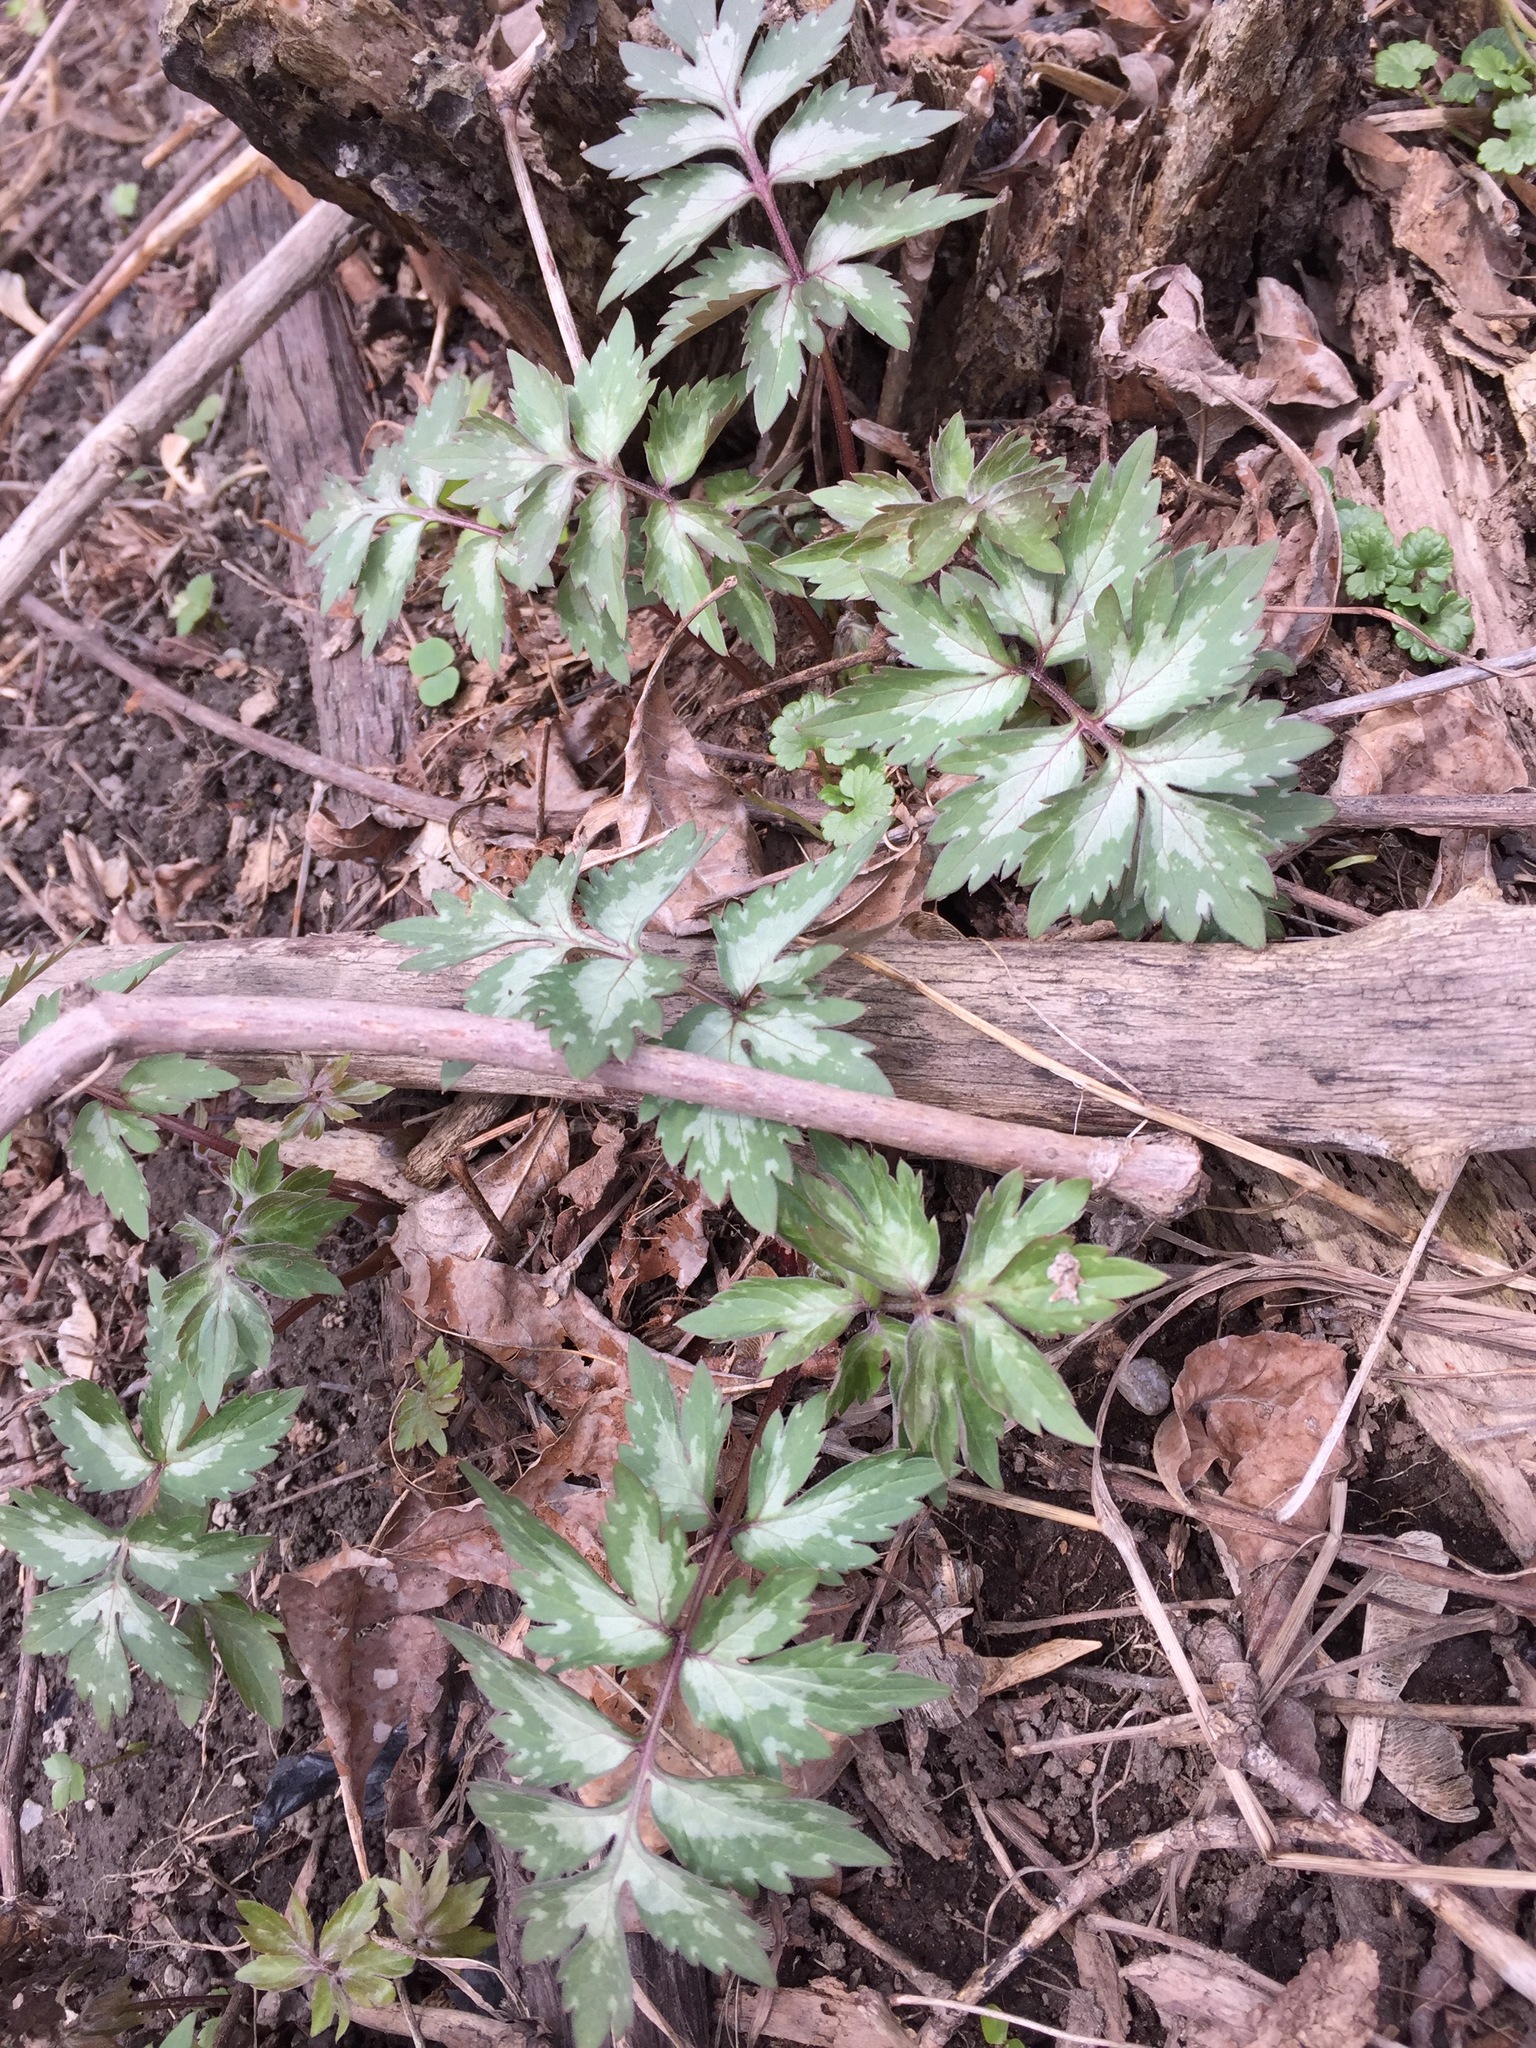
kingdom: Plantae
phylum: Tracheophyta
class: Magnoliopsida
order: Boraginales
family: Hydrophyllaceae
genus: Hydrophyllum
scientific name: Hydrophyllum virginianum
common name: Virginia waterleaf
